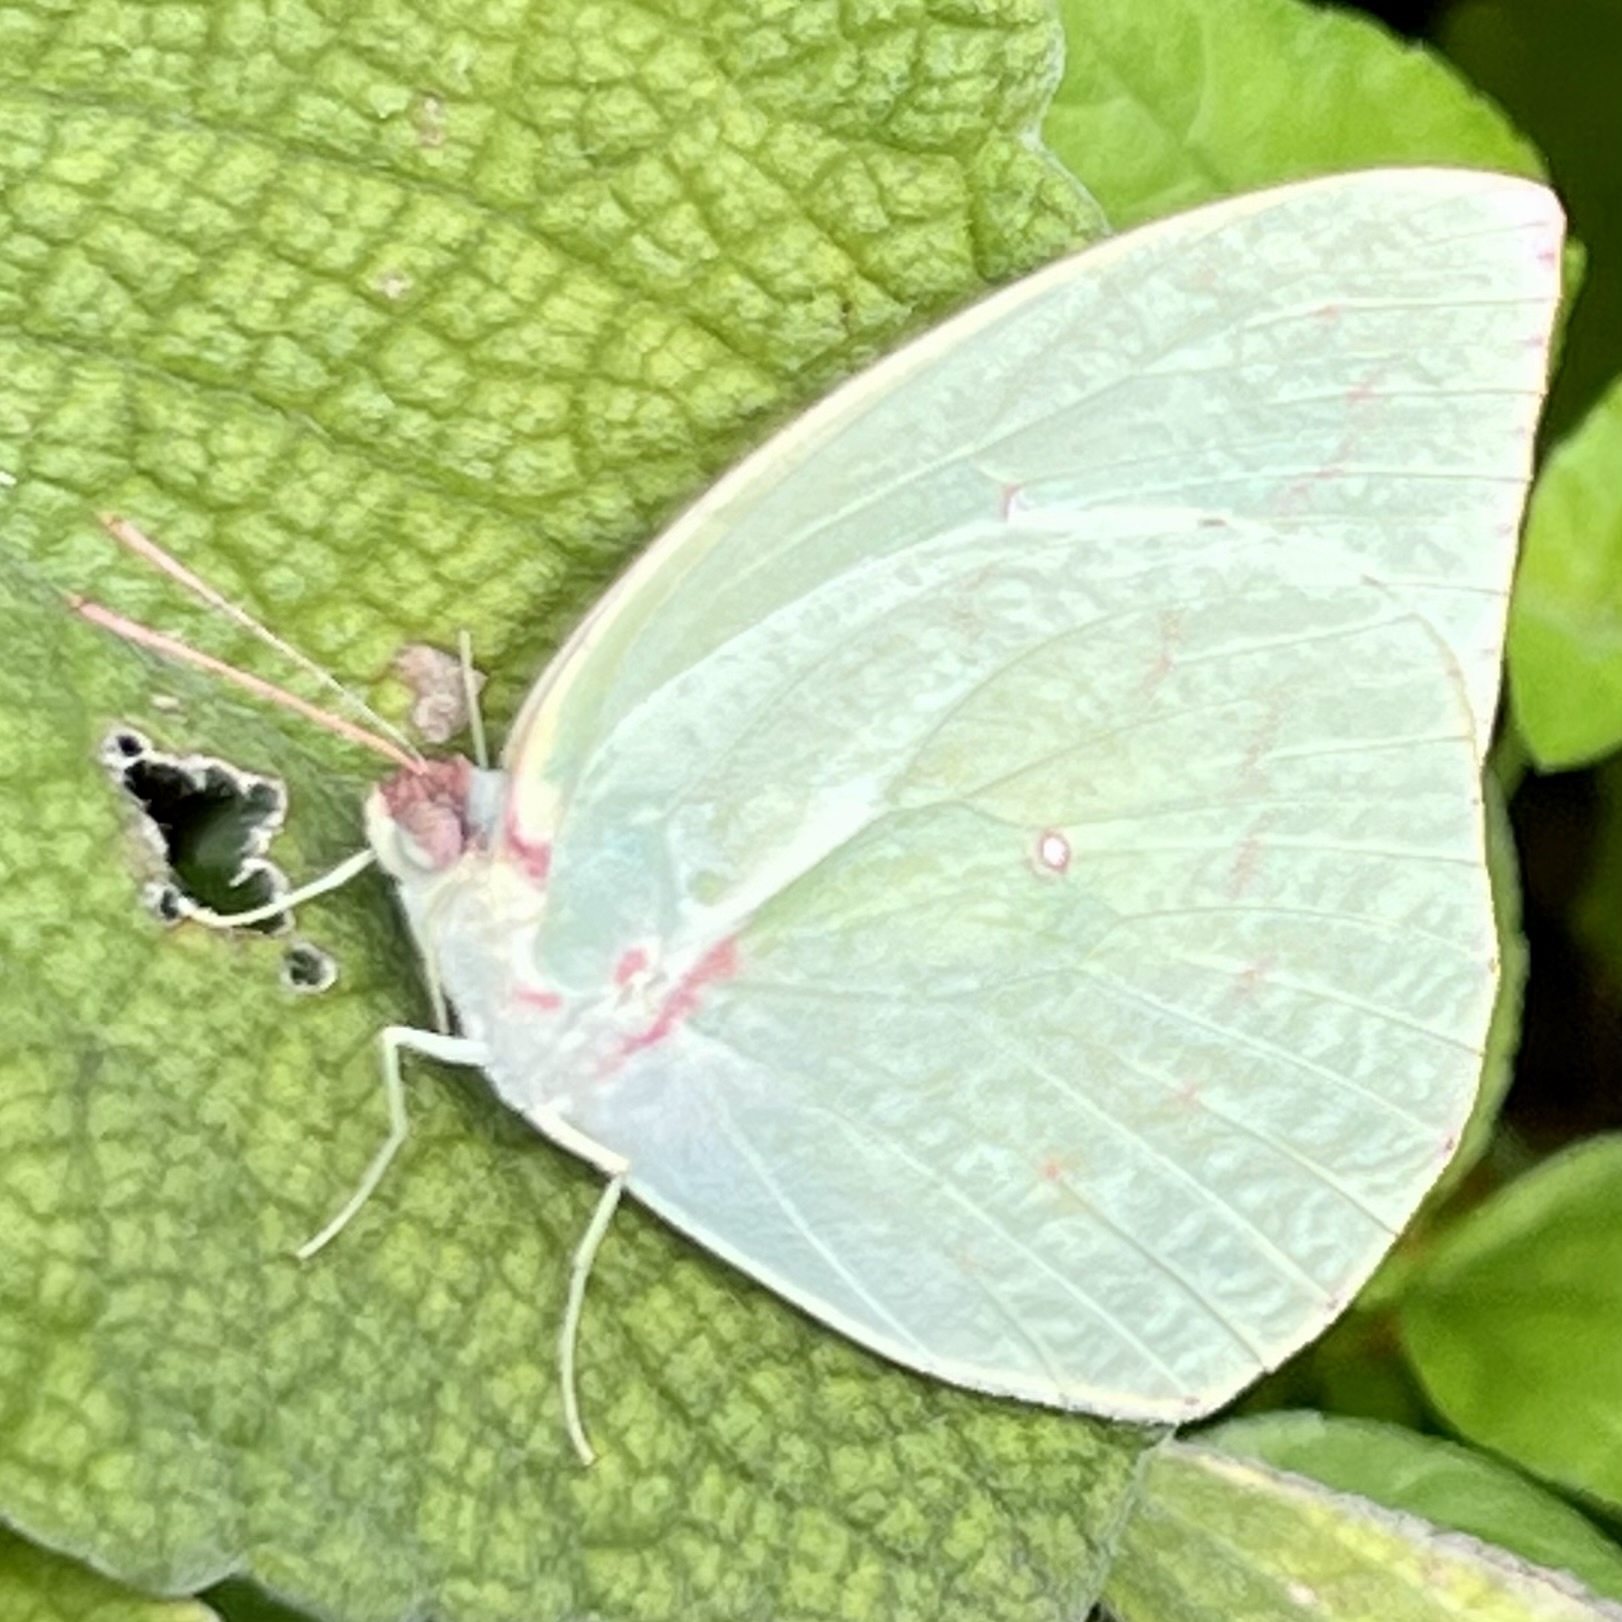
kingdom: Animalia
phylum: Arthropoda
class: Insecta
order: Lepidoptera
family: Pieridae
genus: Catopsilia
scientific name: Catopsilia pomona
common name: Common emigrant
